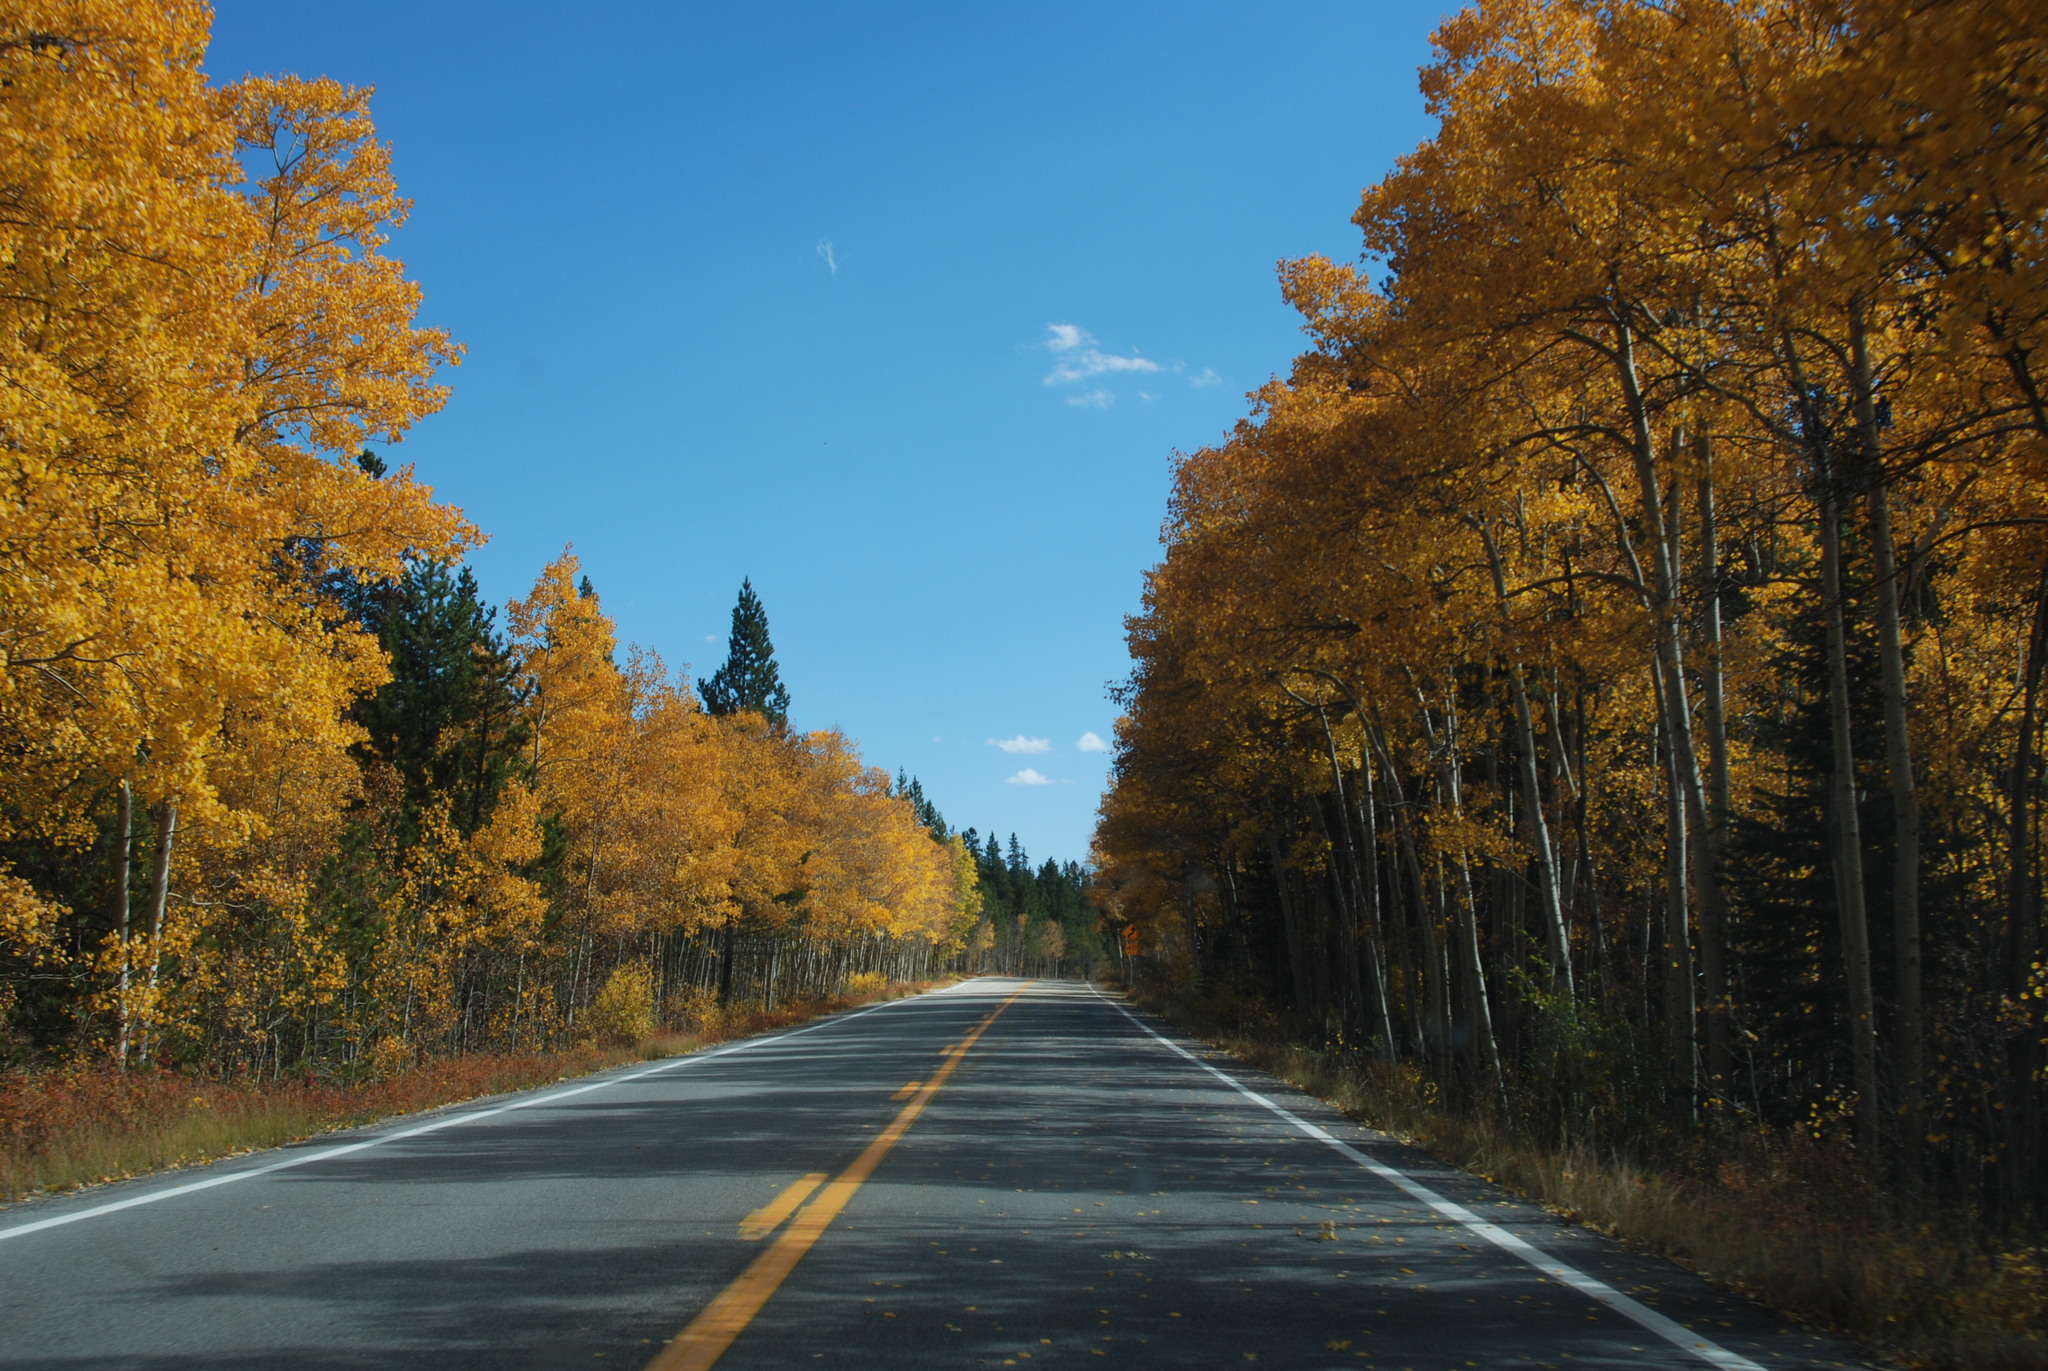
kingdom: Plantae
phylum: Tracheophyta
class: Magnoliopsida
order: Malpighiales
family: Salicaceae
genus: Populus
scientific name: Populus tremuloides
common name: Quaking aspen
